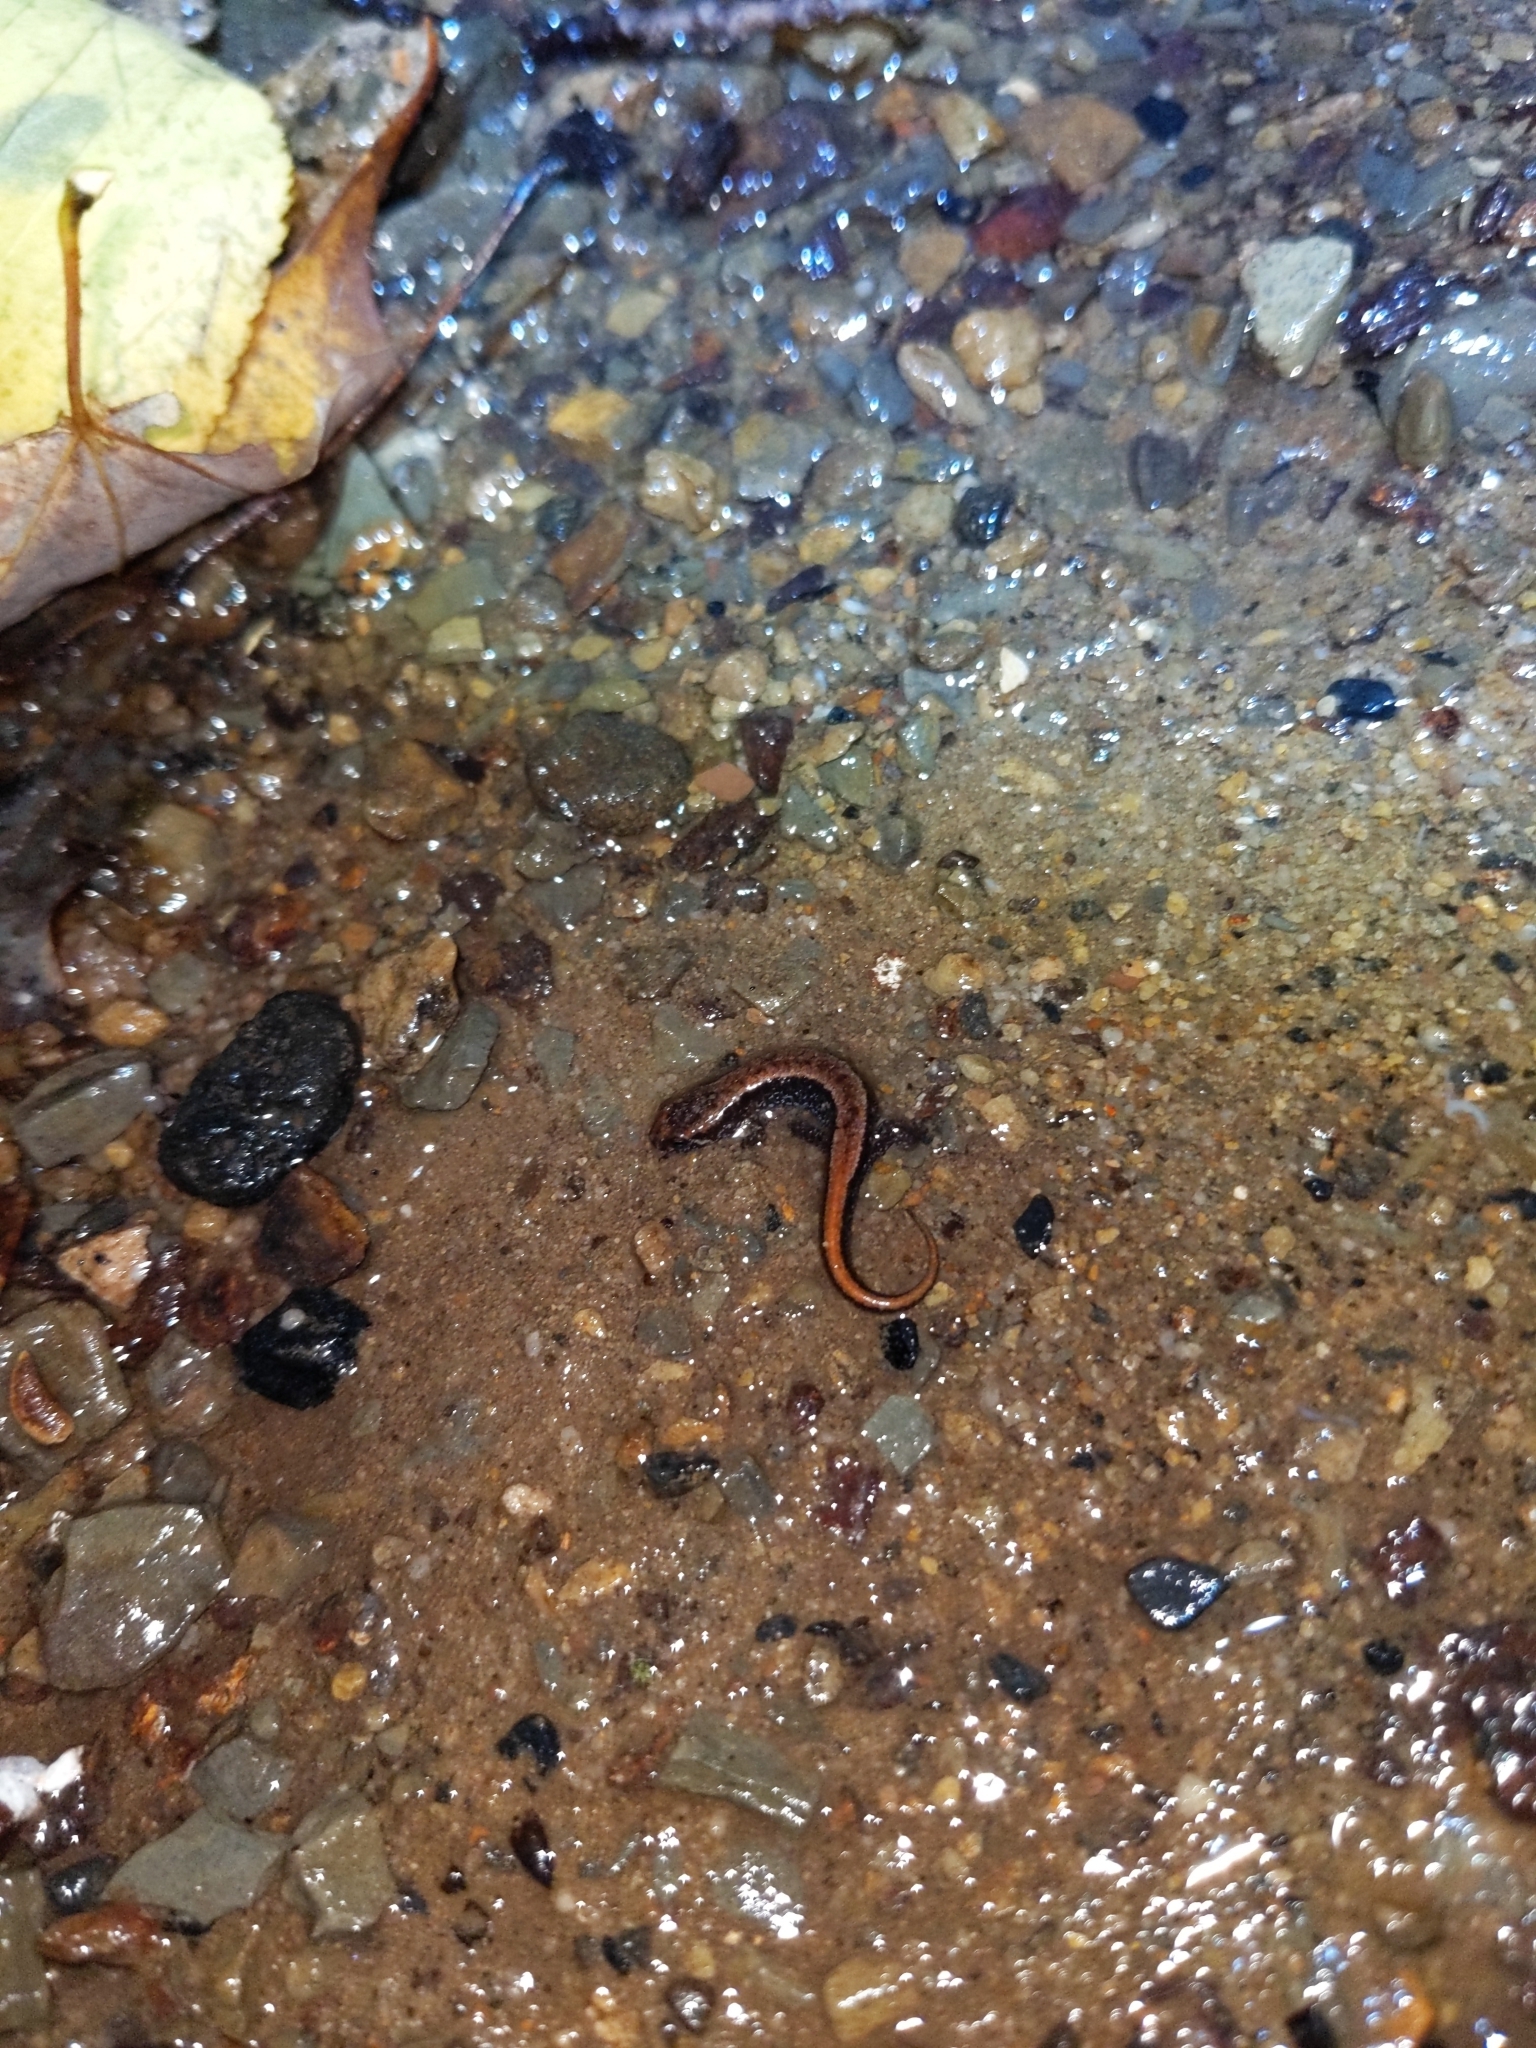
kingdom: Animalia
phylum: Chordata
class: Amphibia
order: Caudata
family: Plethodontidae
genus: Desmognathus
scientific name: Desmognathus ochrophaeus
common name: Allegheny mountain dusky salamander
